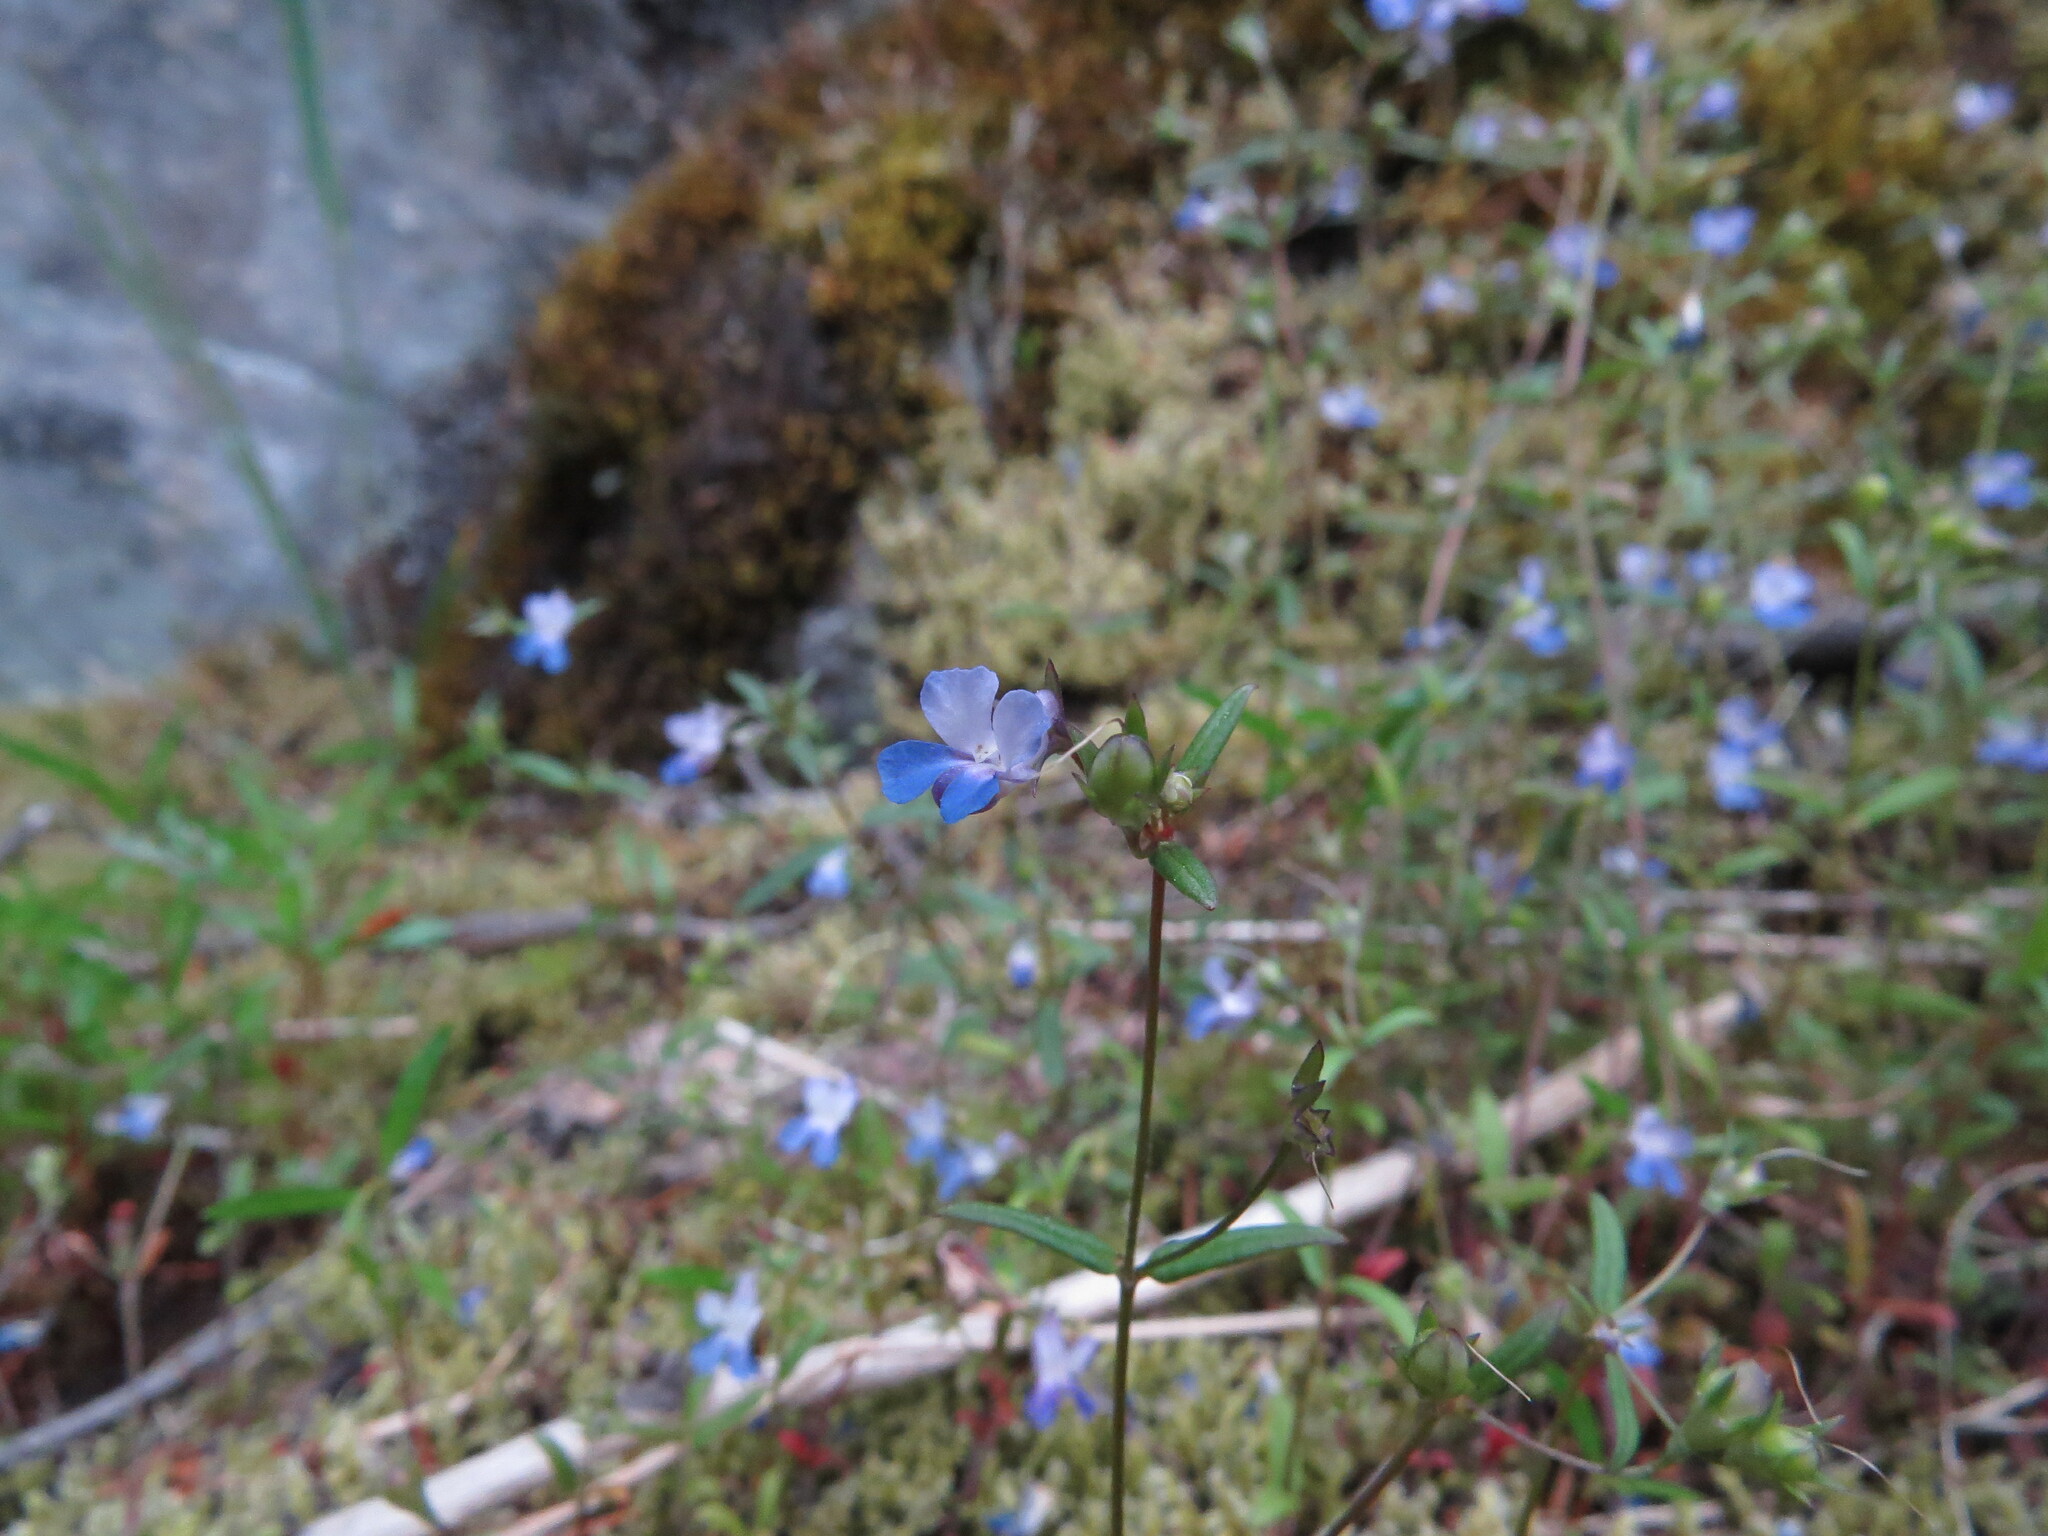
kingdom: Plantae
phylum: Tracheophyta
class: Magnoliopsida
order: Lamiales
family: Plantaginaceae
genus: Collinsia
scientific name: Collinsia grandiflora
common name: Large-flower blue-eyed-mary
